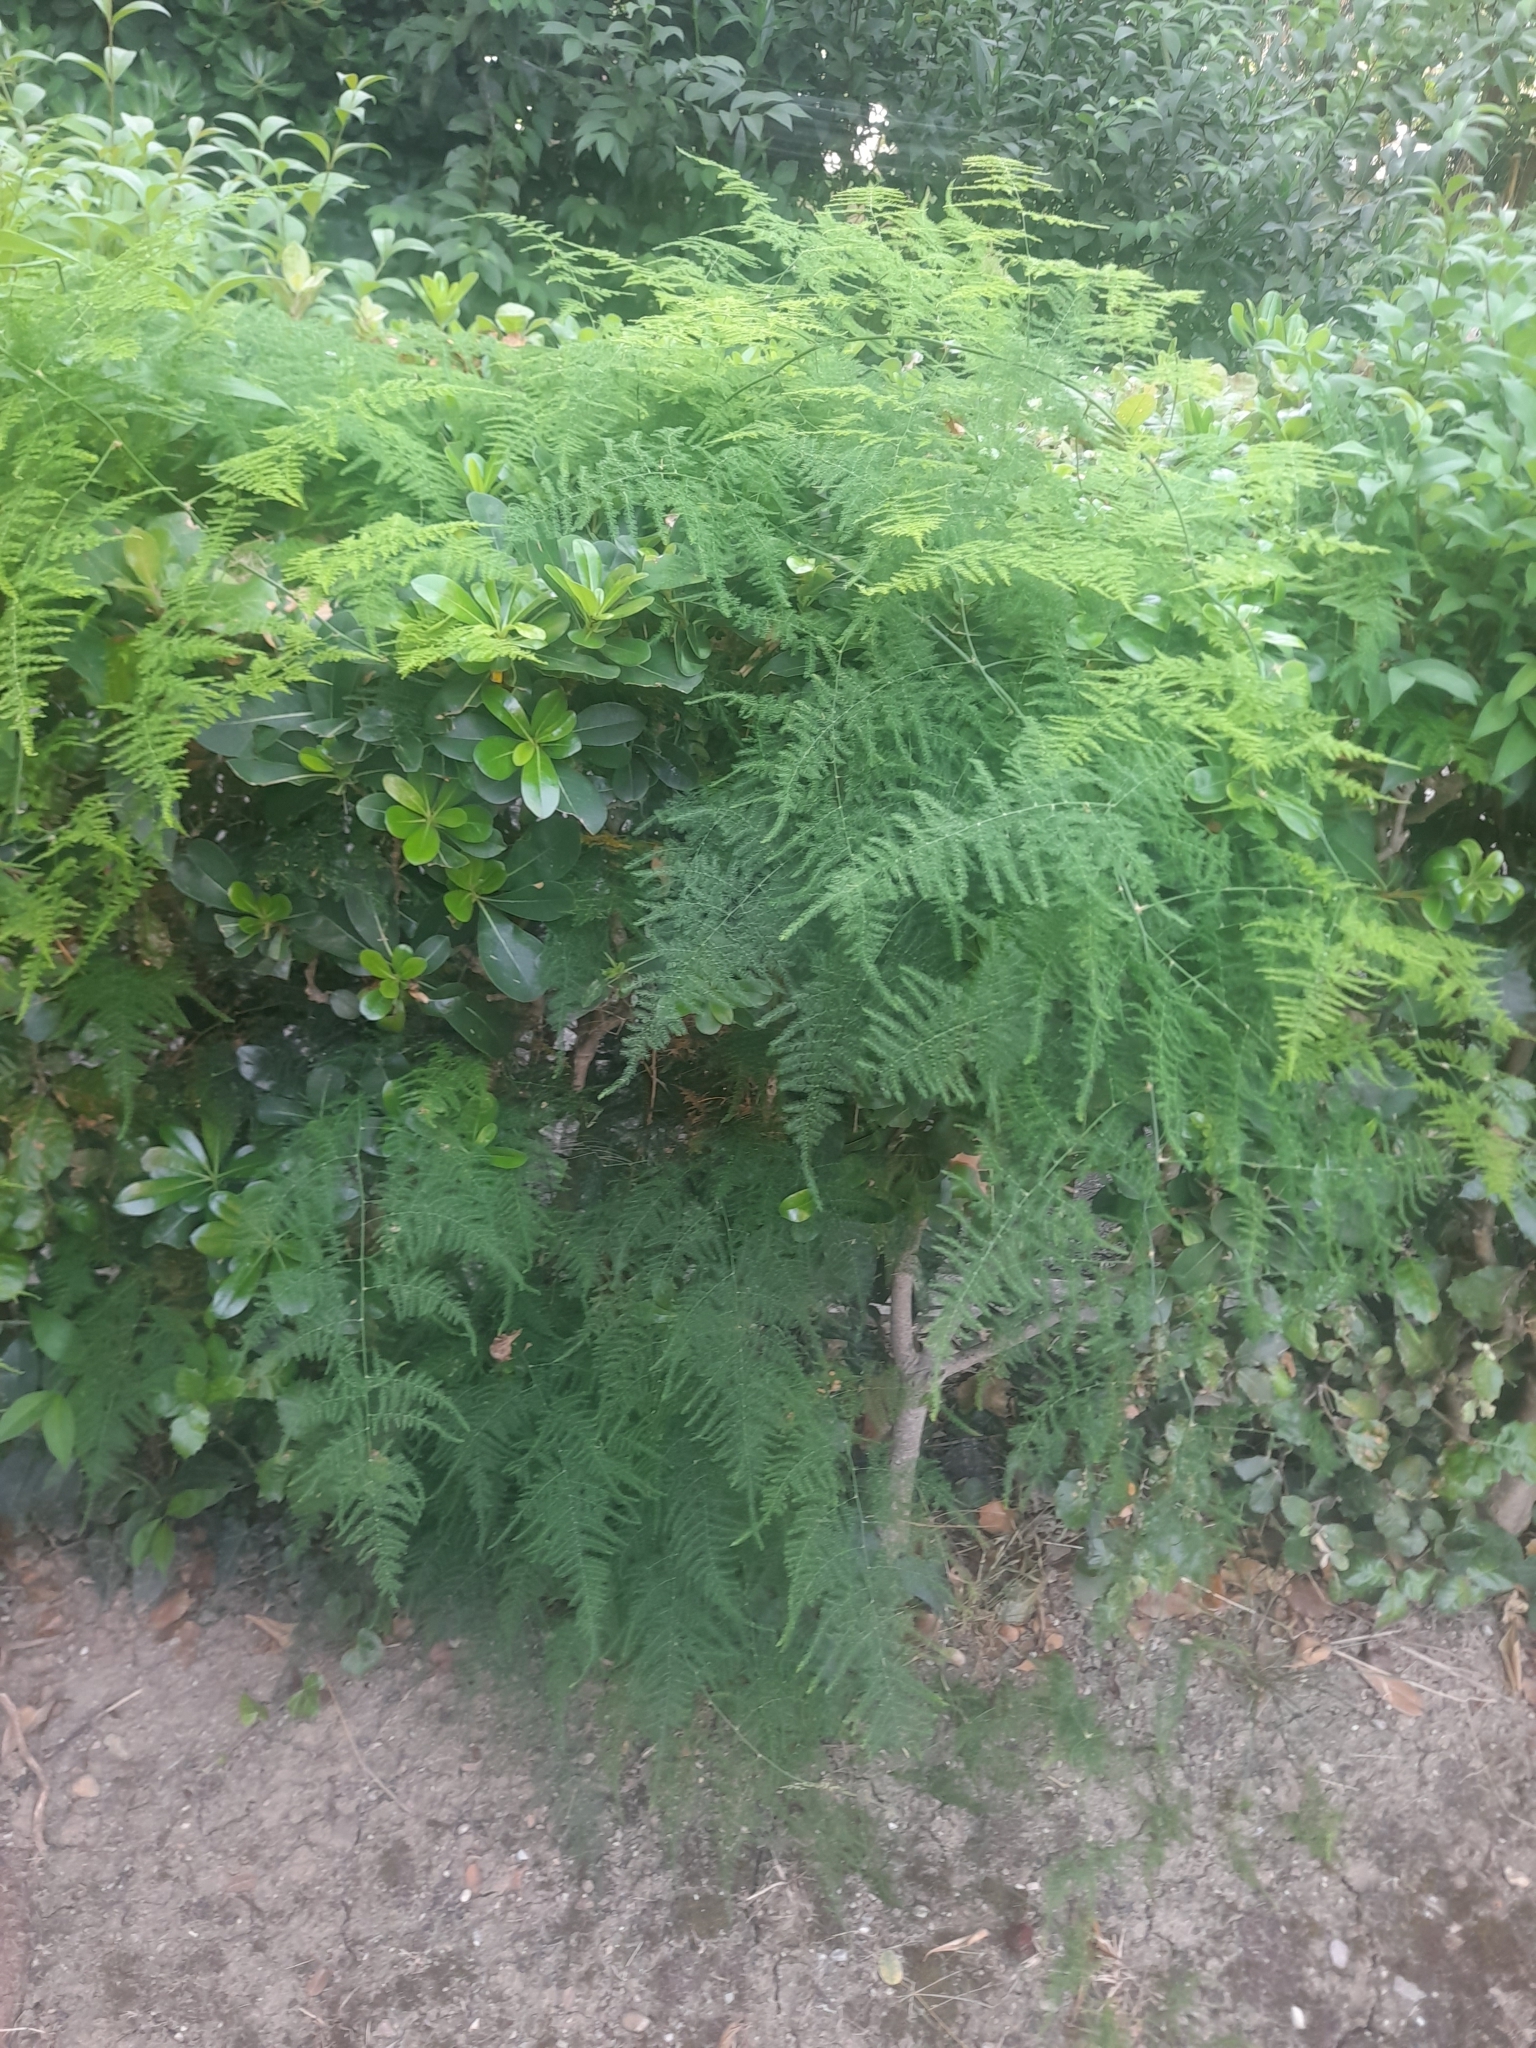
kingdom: Plantae
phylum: Tracheophyta
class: Liliopsida
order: Asparagales
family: Asparagaceae
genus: Asparagus
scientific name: Asparagus setaceus
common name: Common asparagus fern
